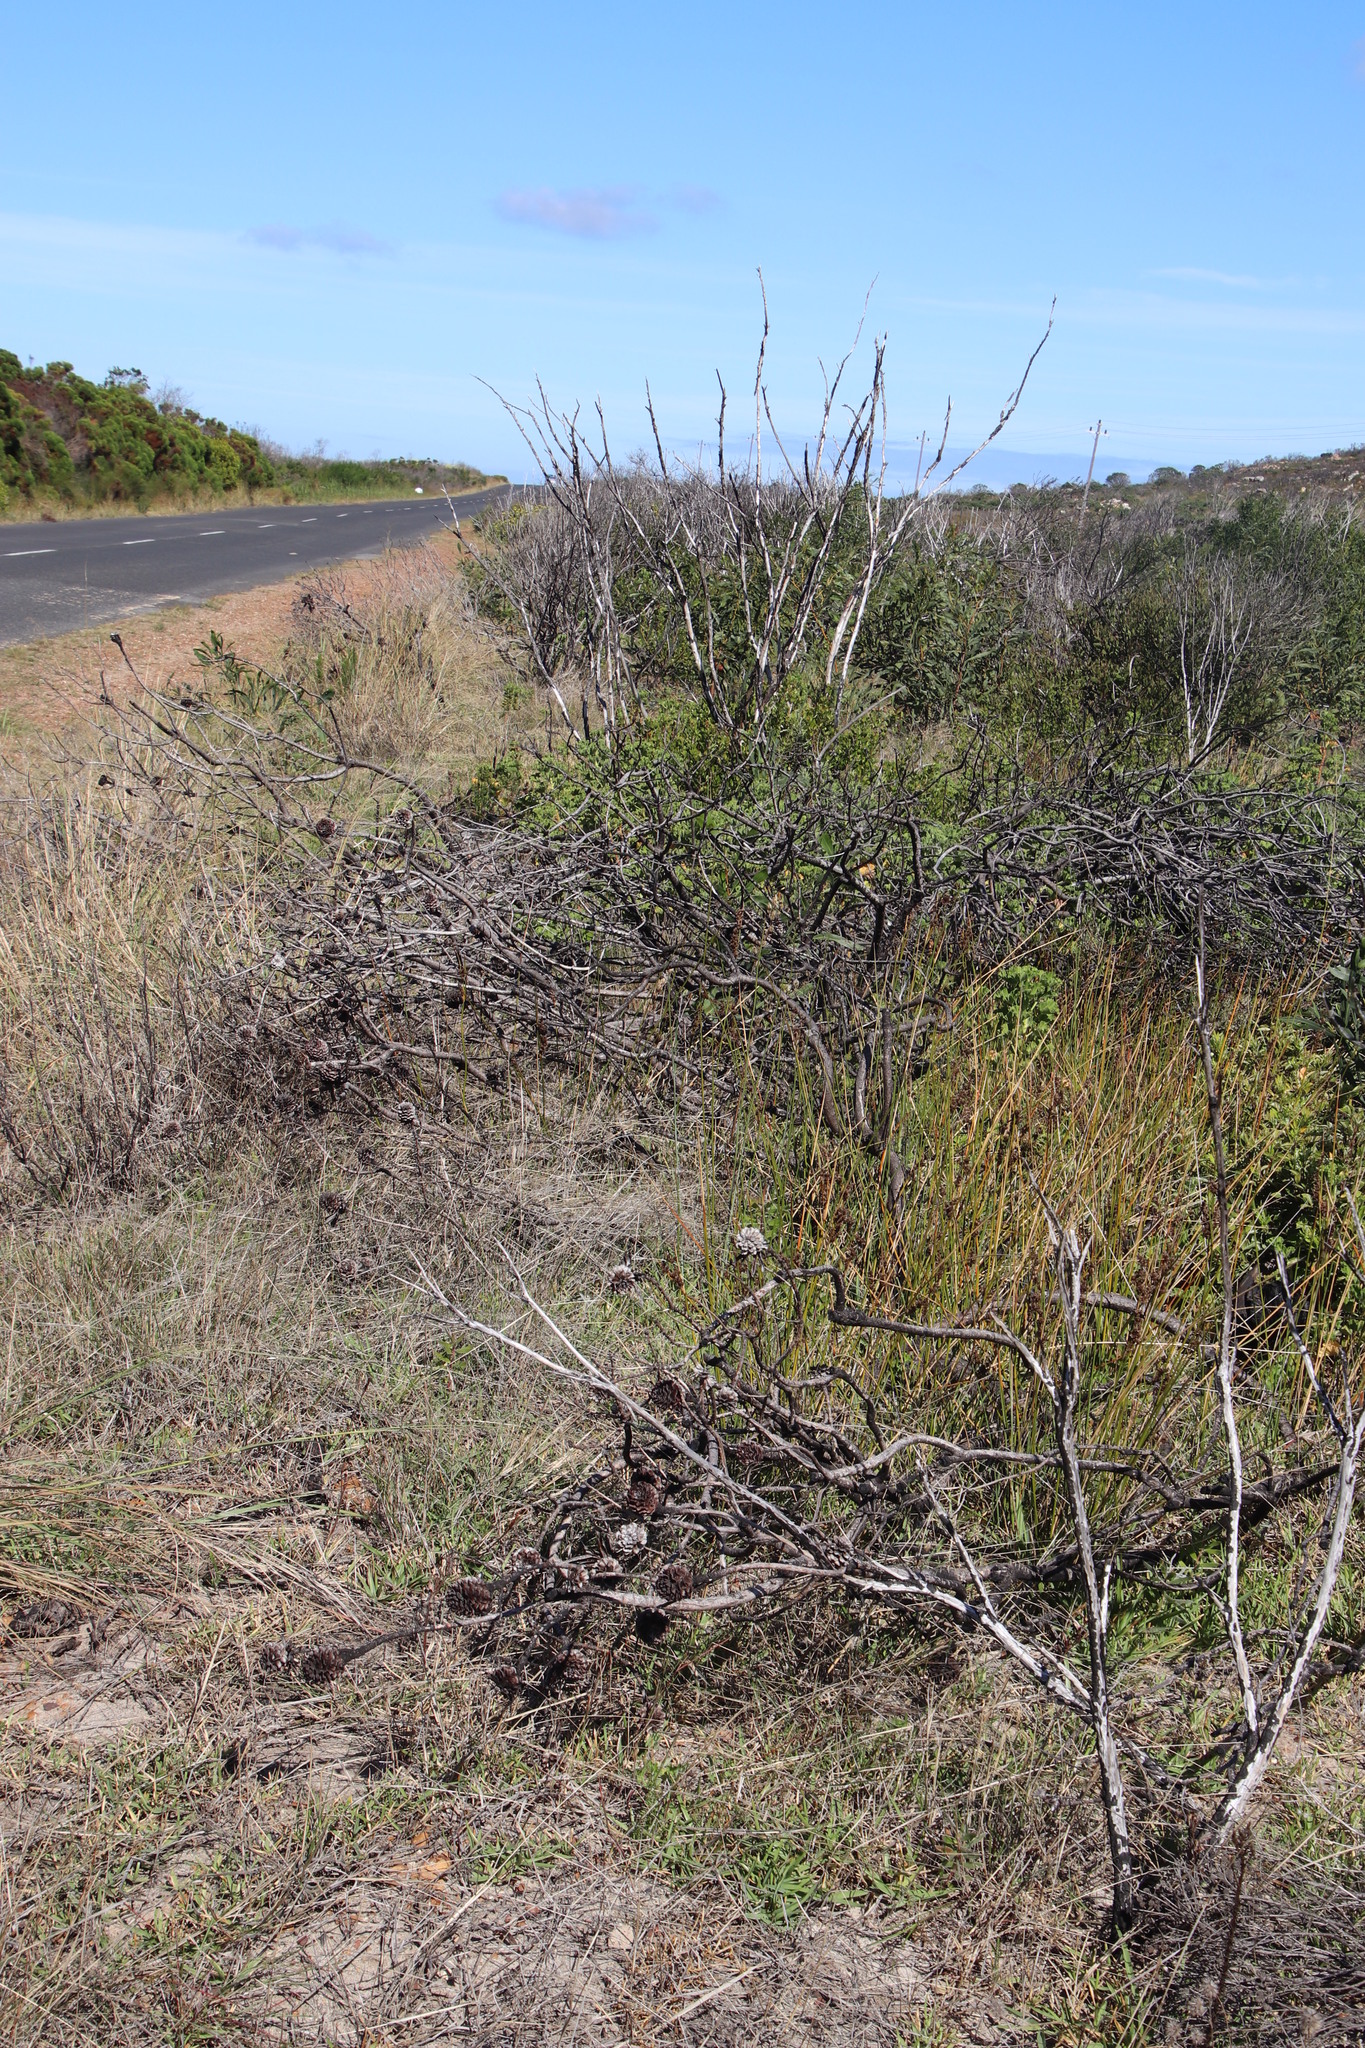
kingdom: Plantae
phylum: Tracheophyta
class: Magnoliopsida
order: Proteales
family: Proteaceae
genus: Leucadendron
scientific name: Leucadendron laureolum
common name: Golden sunshinebush
